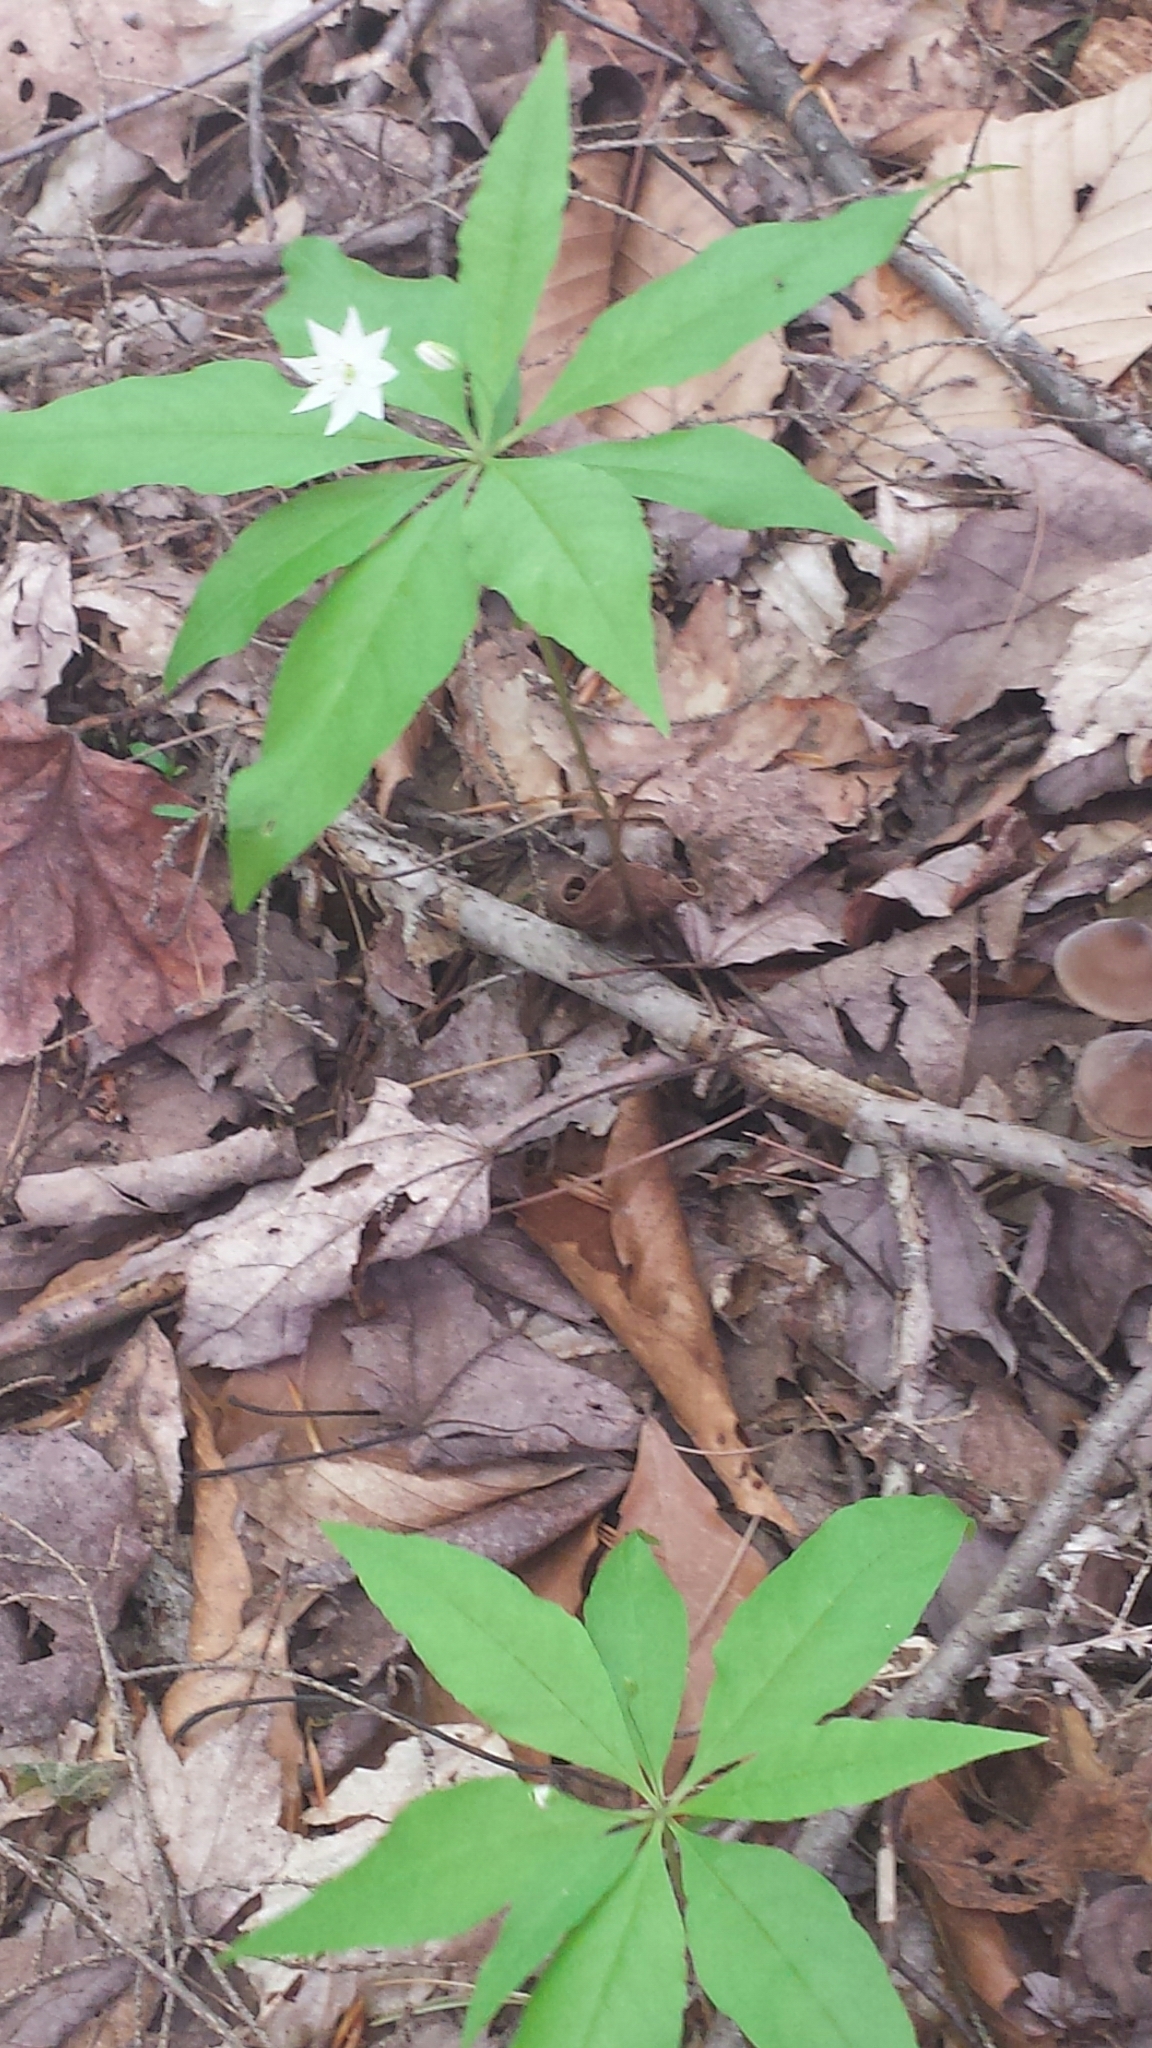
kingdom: Plantae
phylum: Tracheophyta
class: Magnoliopsida
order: Ericales
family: Primulaceae
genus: Lysimachia
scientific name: Lysimachia borealis
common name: American starflower
